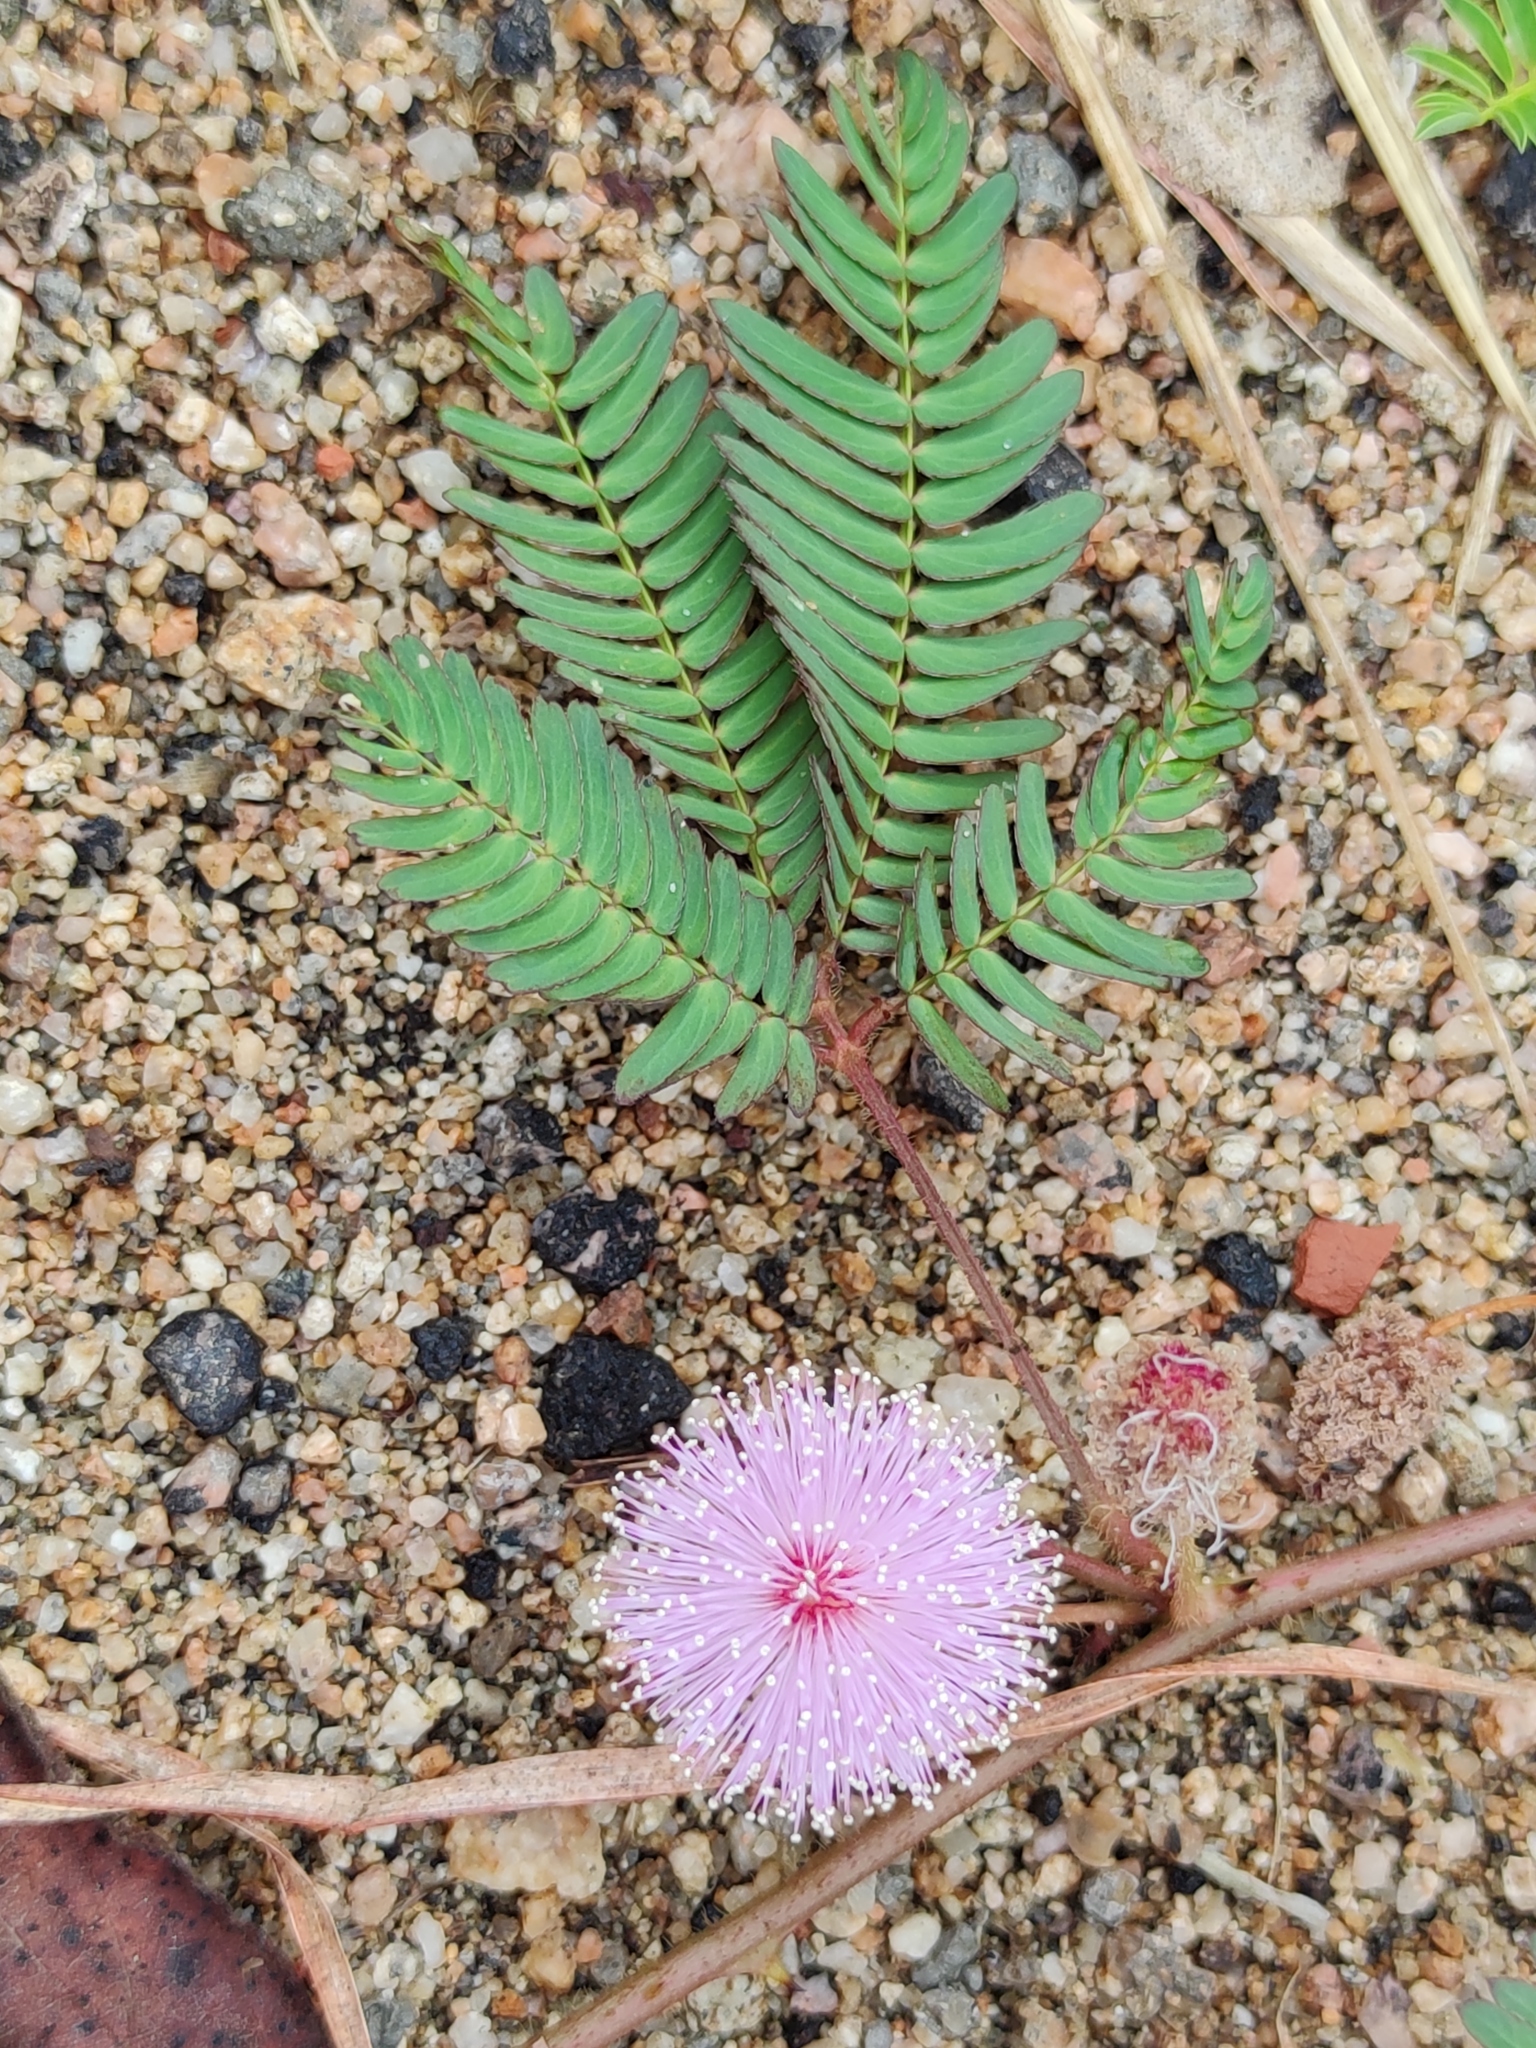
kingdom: Plantae
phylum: Tracheophyta
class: Magnoliopsida
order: Fabales
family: Fabaceae
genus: Mimosa
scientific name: Mimosa pudica
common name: Sensitive plant
